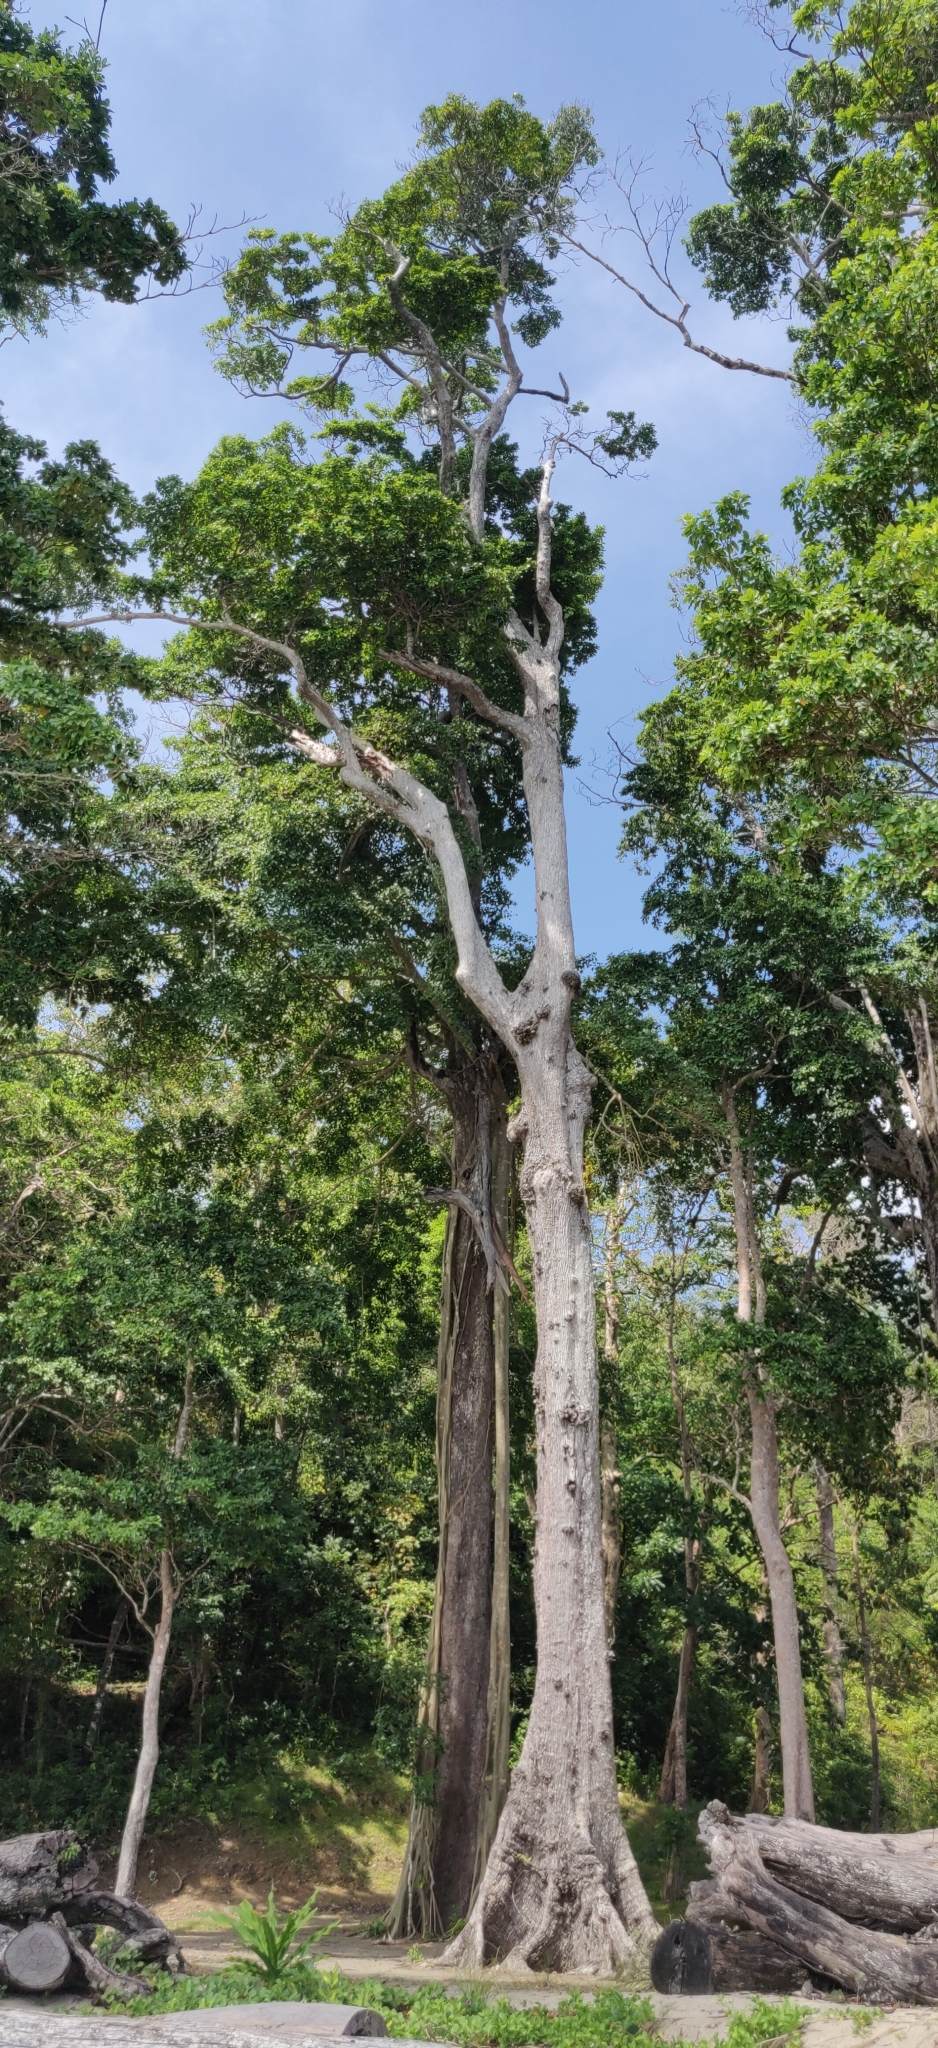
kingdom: Plantae
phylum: Tracheophyta
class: Magnoliopsida
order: Ericales
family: Sapotaceae
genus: Manilkara
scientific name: Manilkara littoralis
